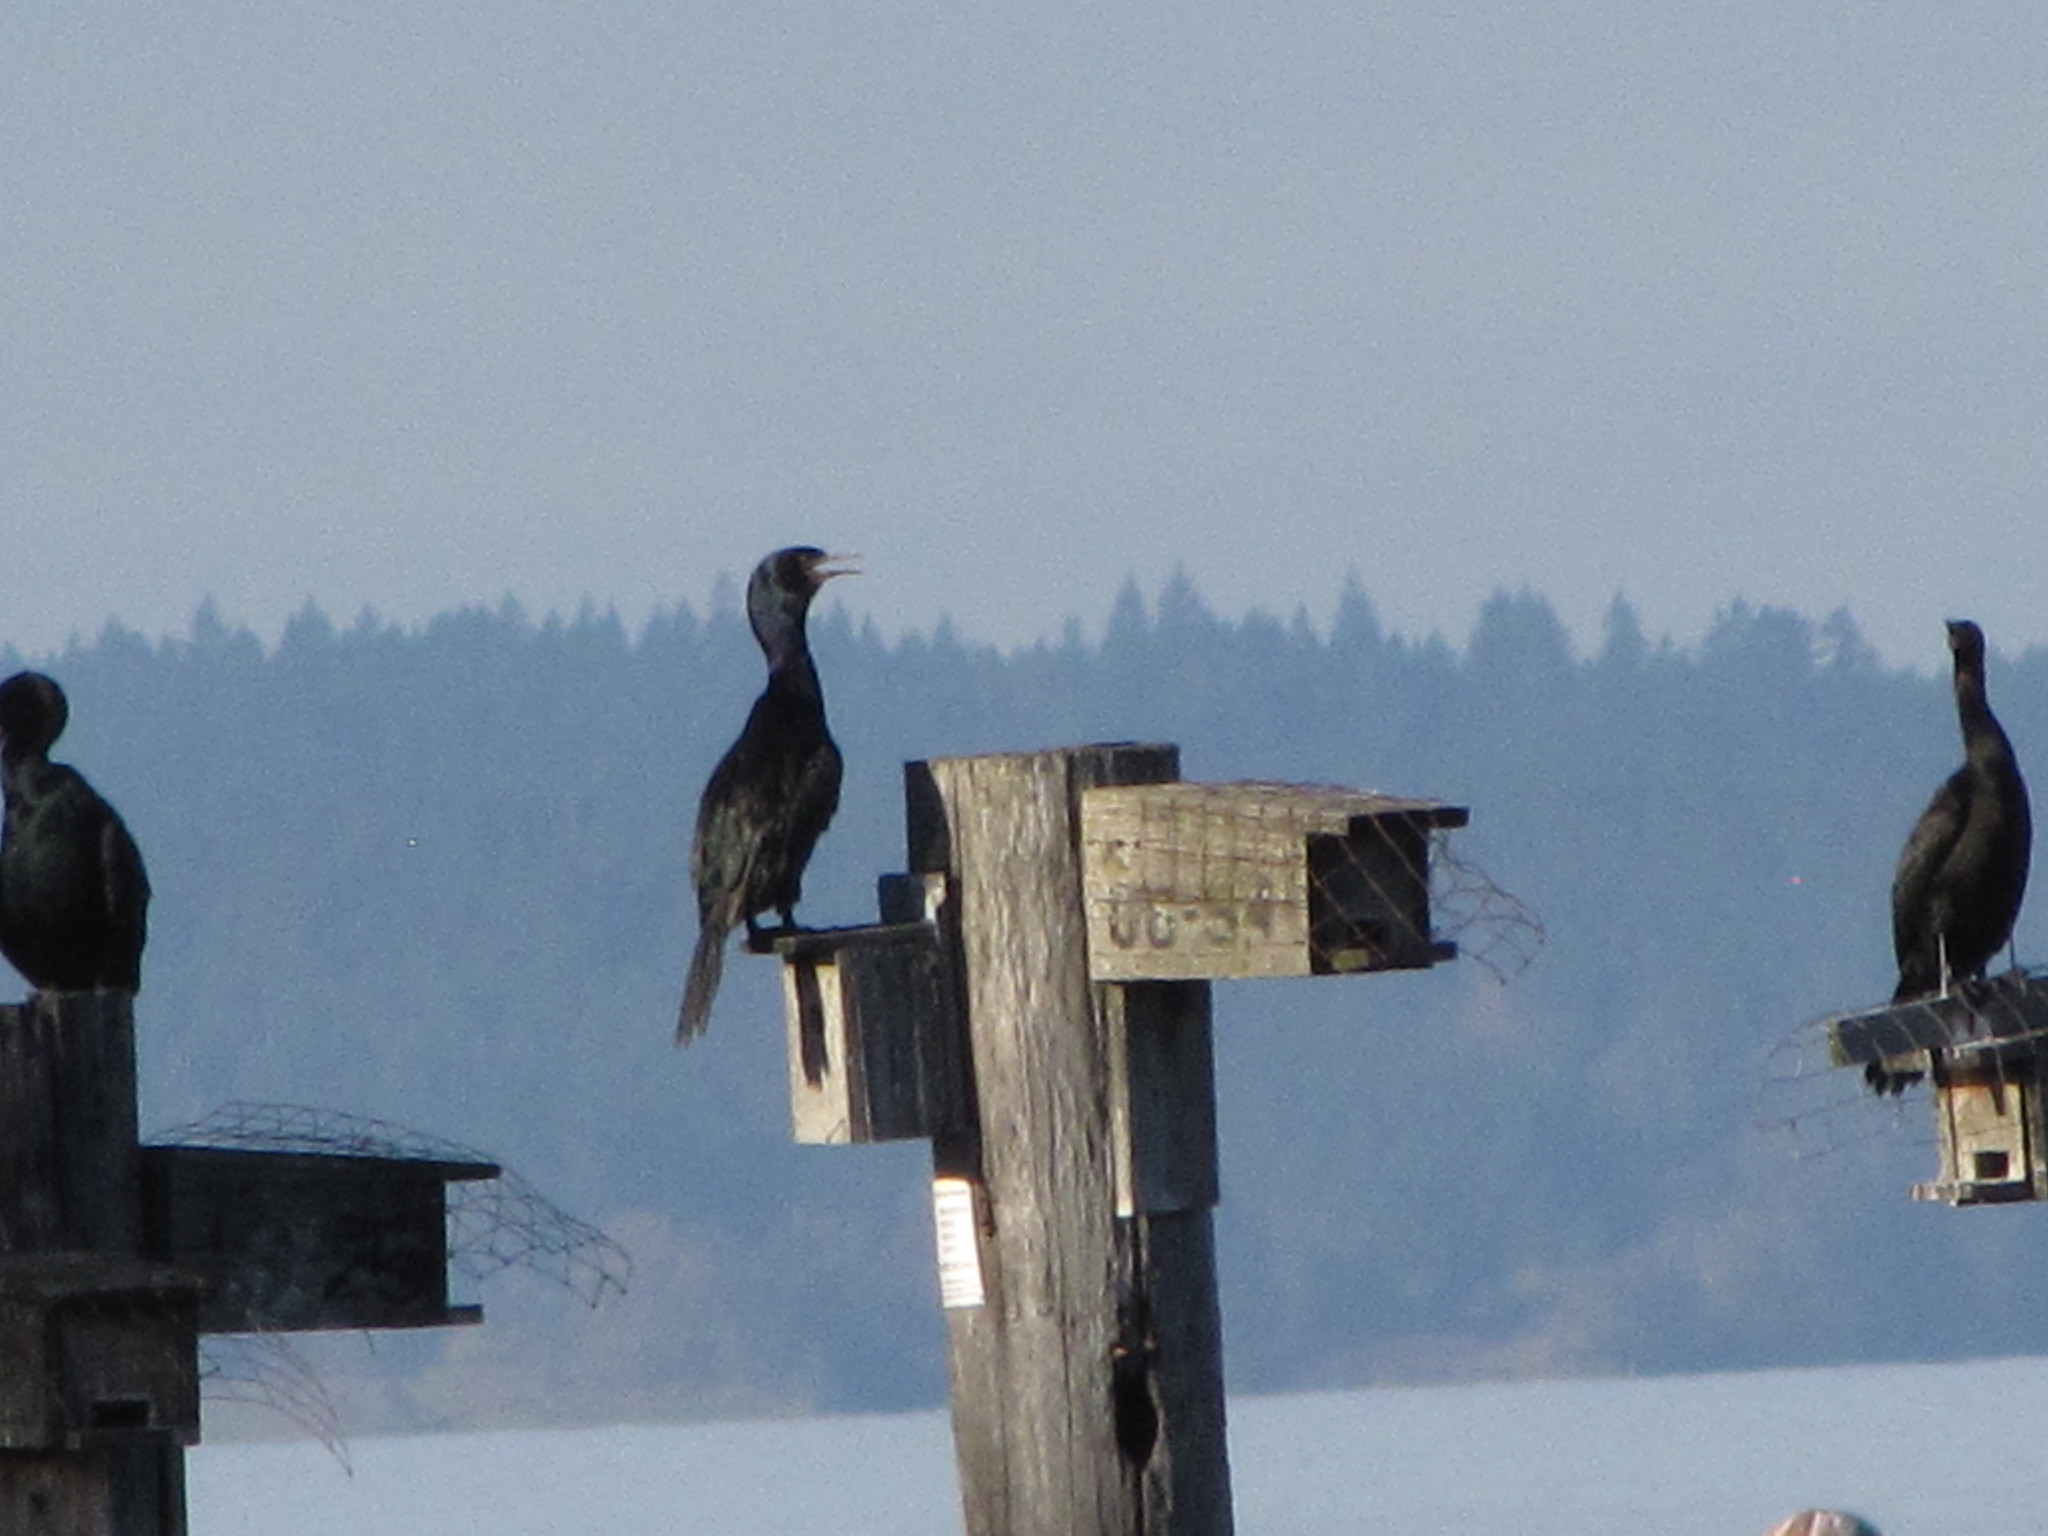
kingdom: Animalia
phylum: Chordata
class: Aves
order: Suliformes
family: Phalacrocoracidae
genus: Phalacrocorax
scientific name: Phalacrocorax pelagicus
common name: Pelagic cormorant
